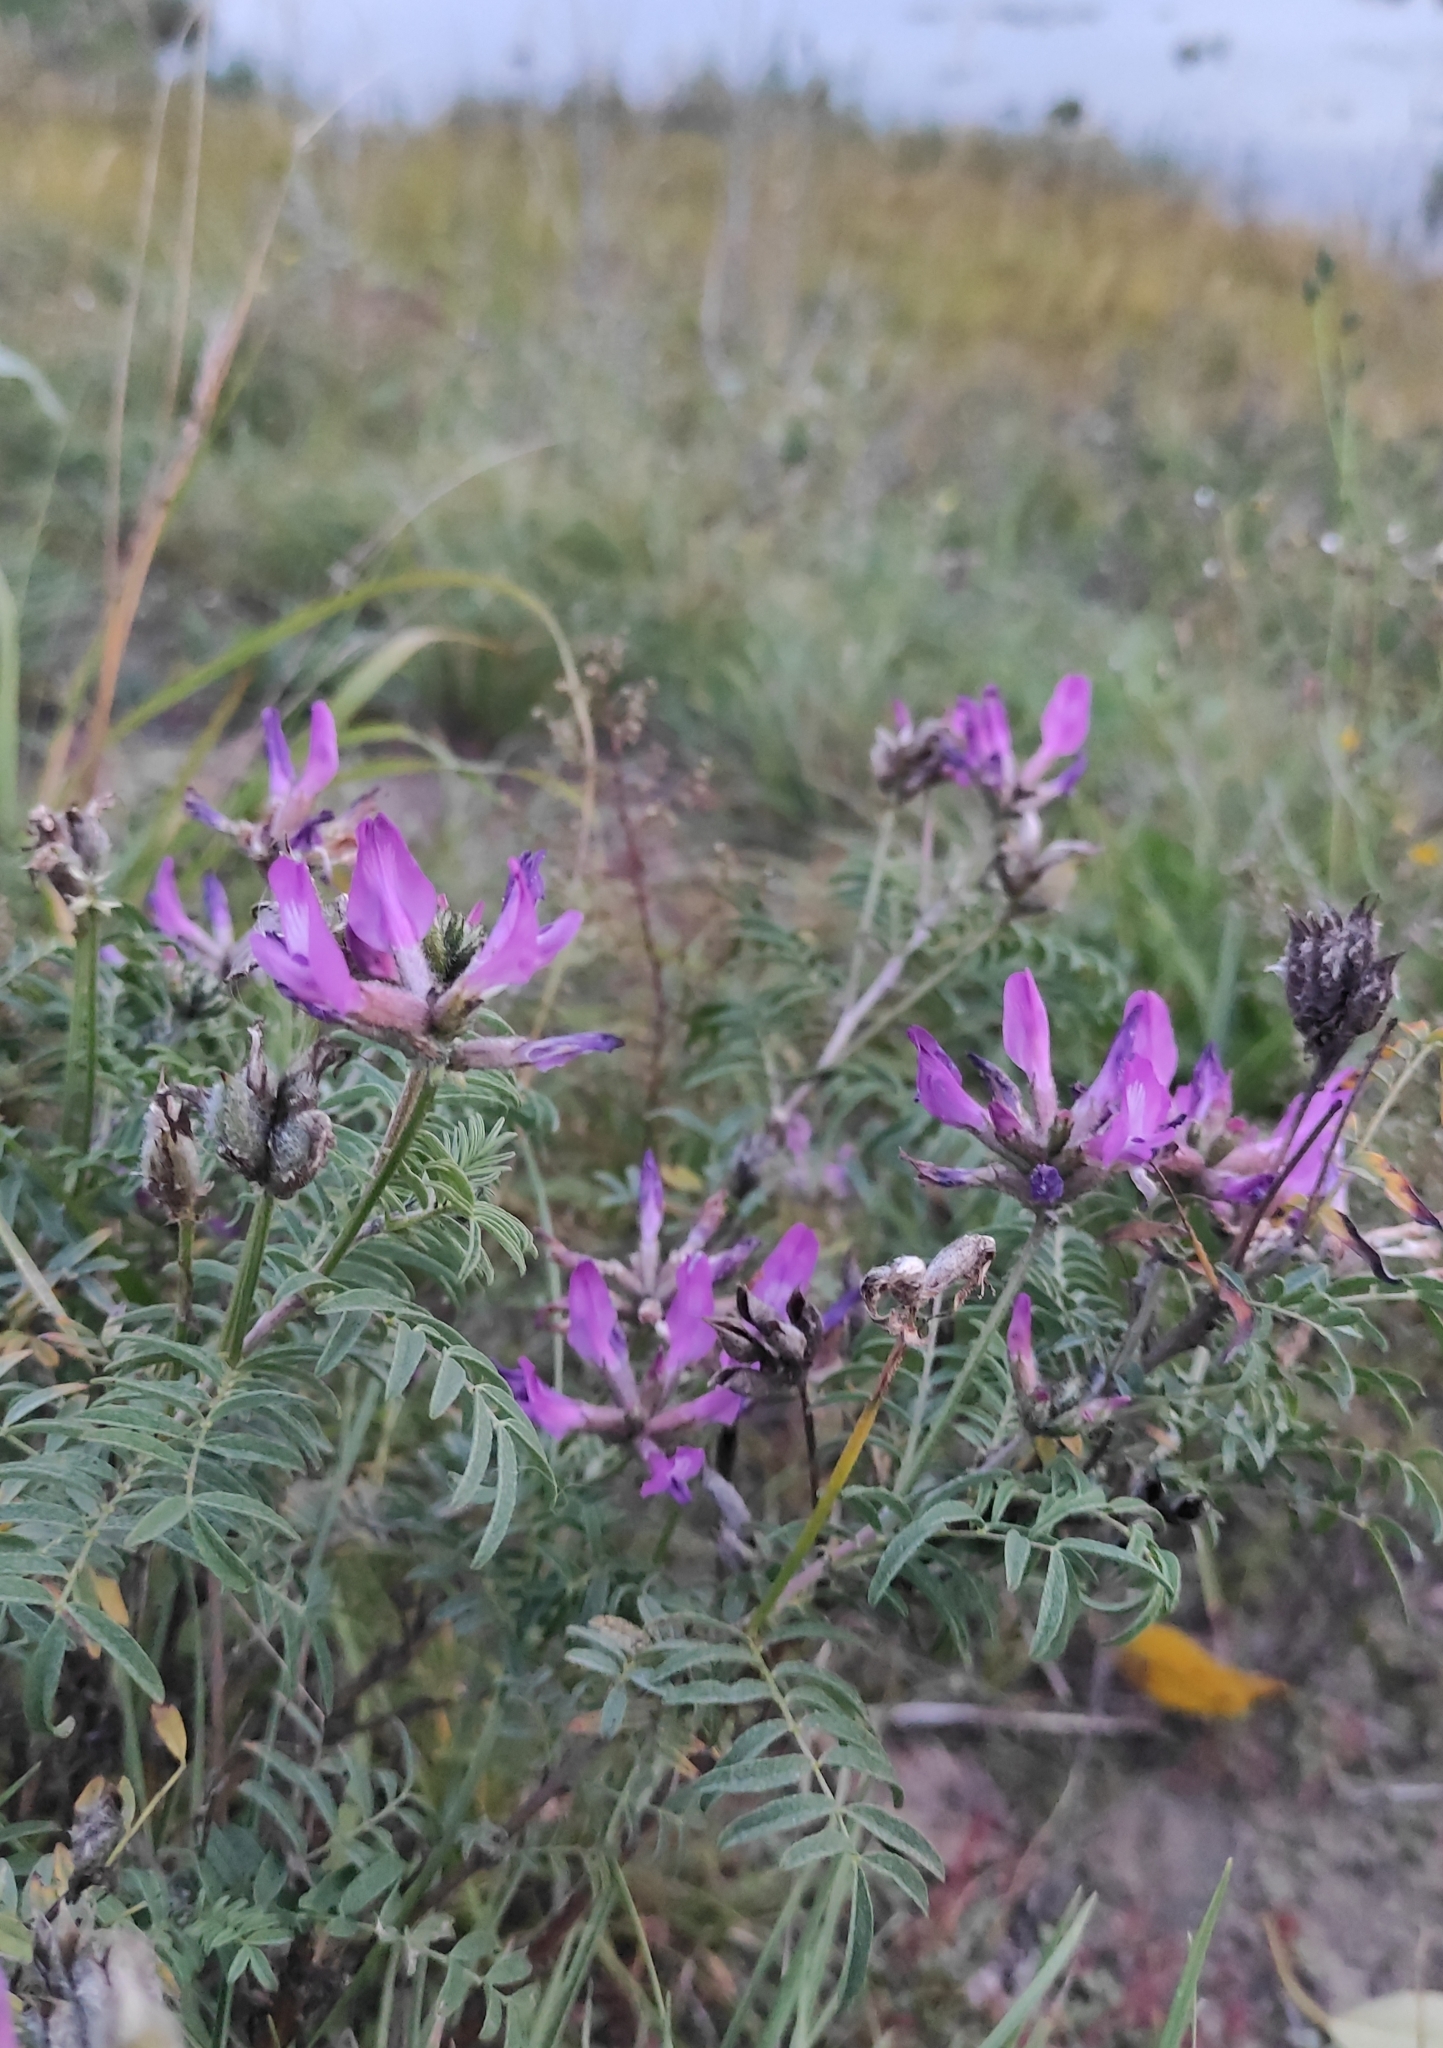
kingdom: Plantae
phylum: Tracheophyta
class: Magnoliopsida
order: Fabales
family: Fabaceae
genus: Astragalus
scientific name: Astragalus syriacus
